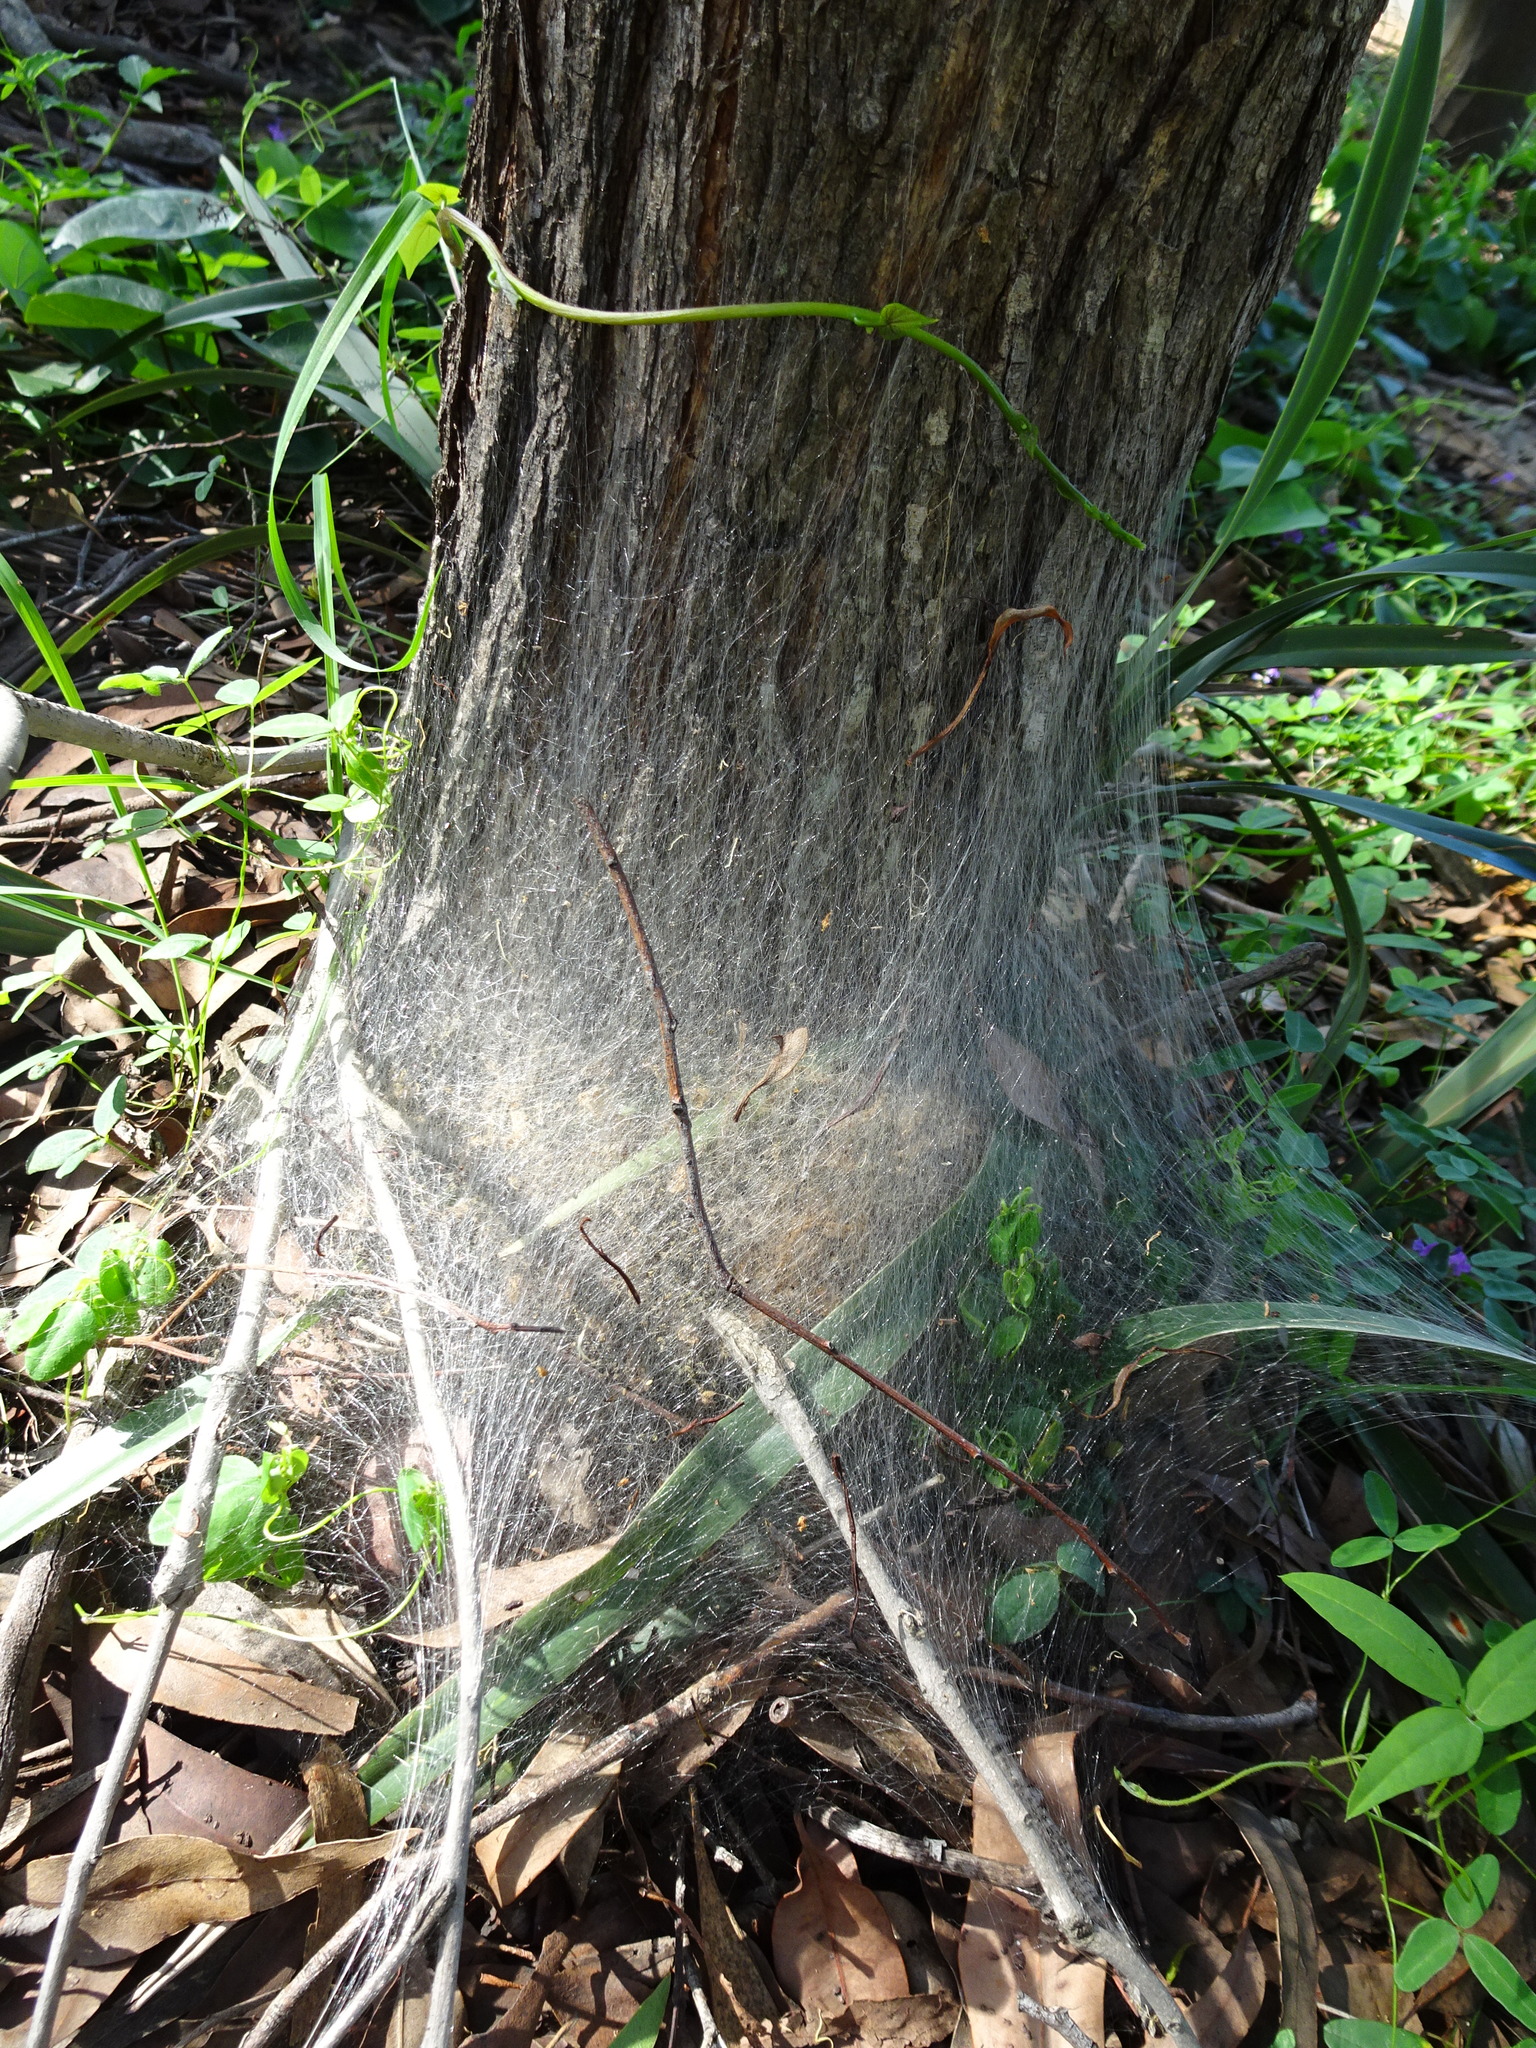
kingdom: Animalia
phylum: Arthropoda
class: Insecta
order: Lepidoptera
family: Notodontidae
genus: Ochrogaster
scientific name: Ochrogaster lunifer
